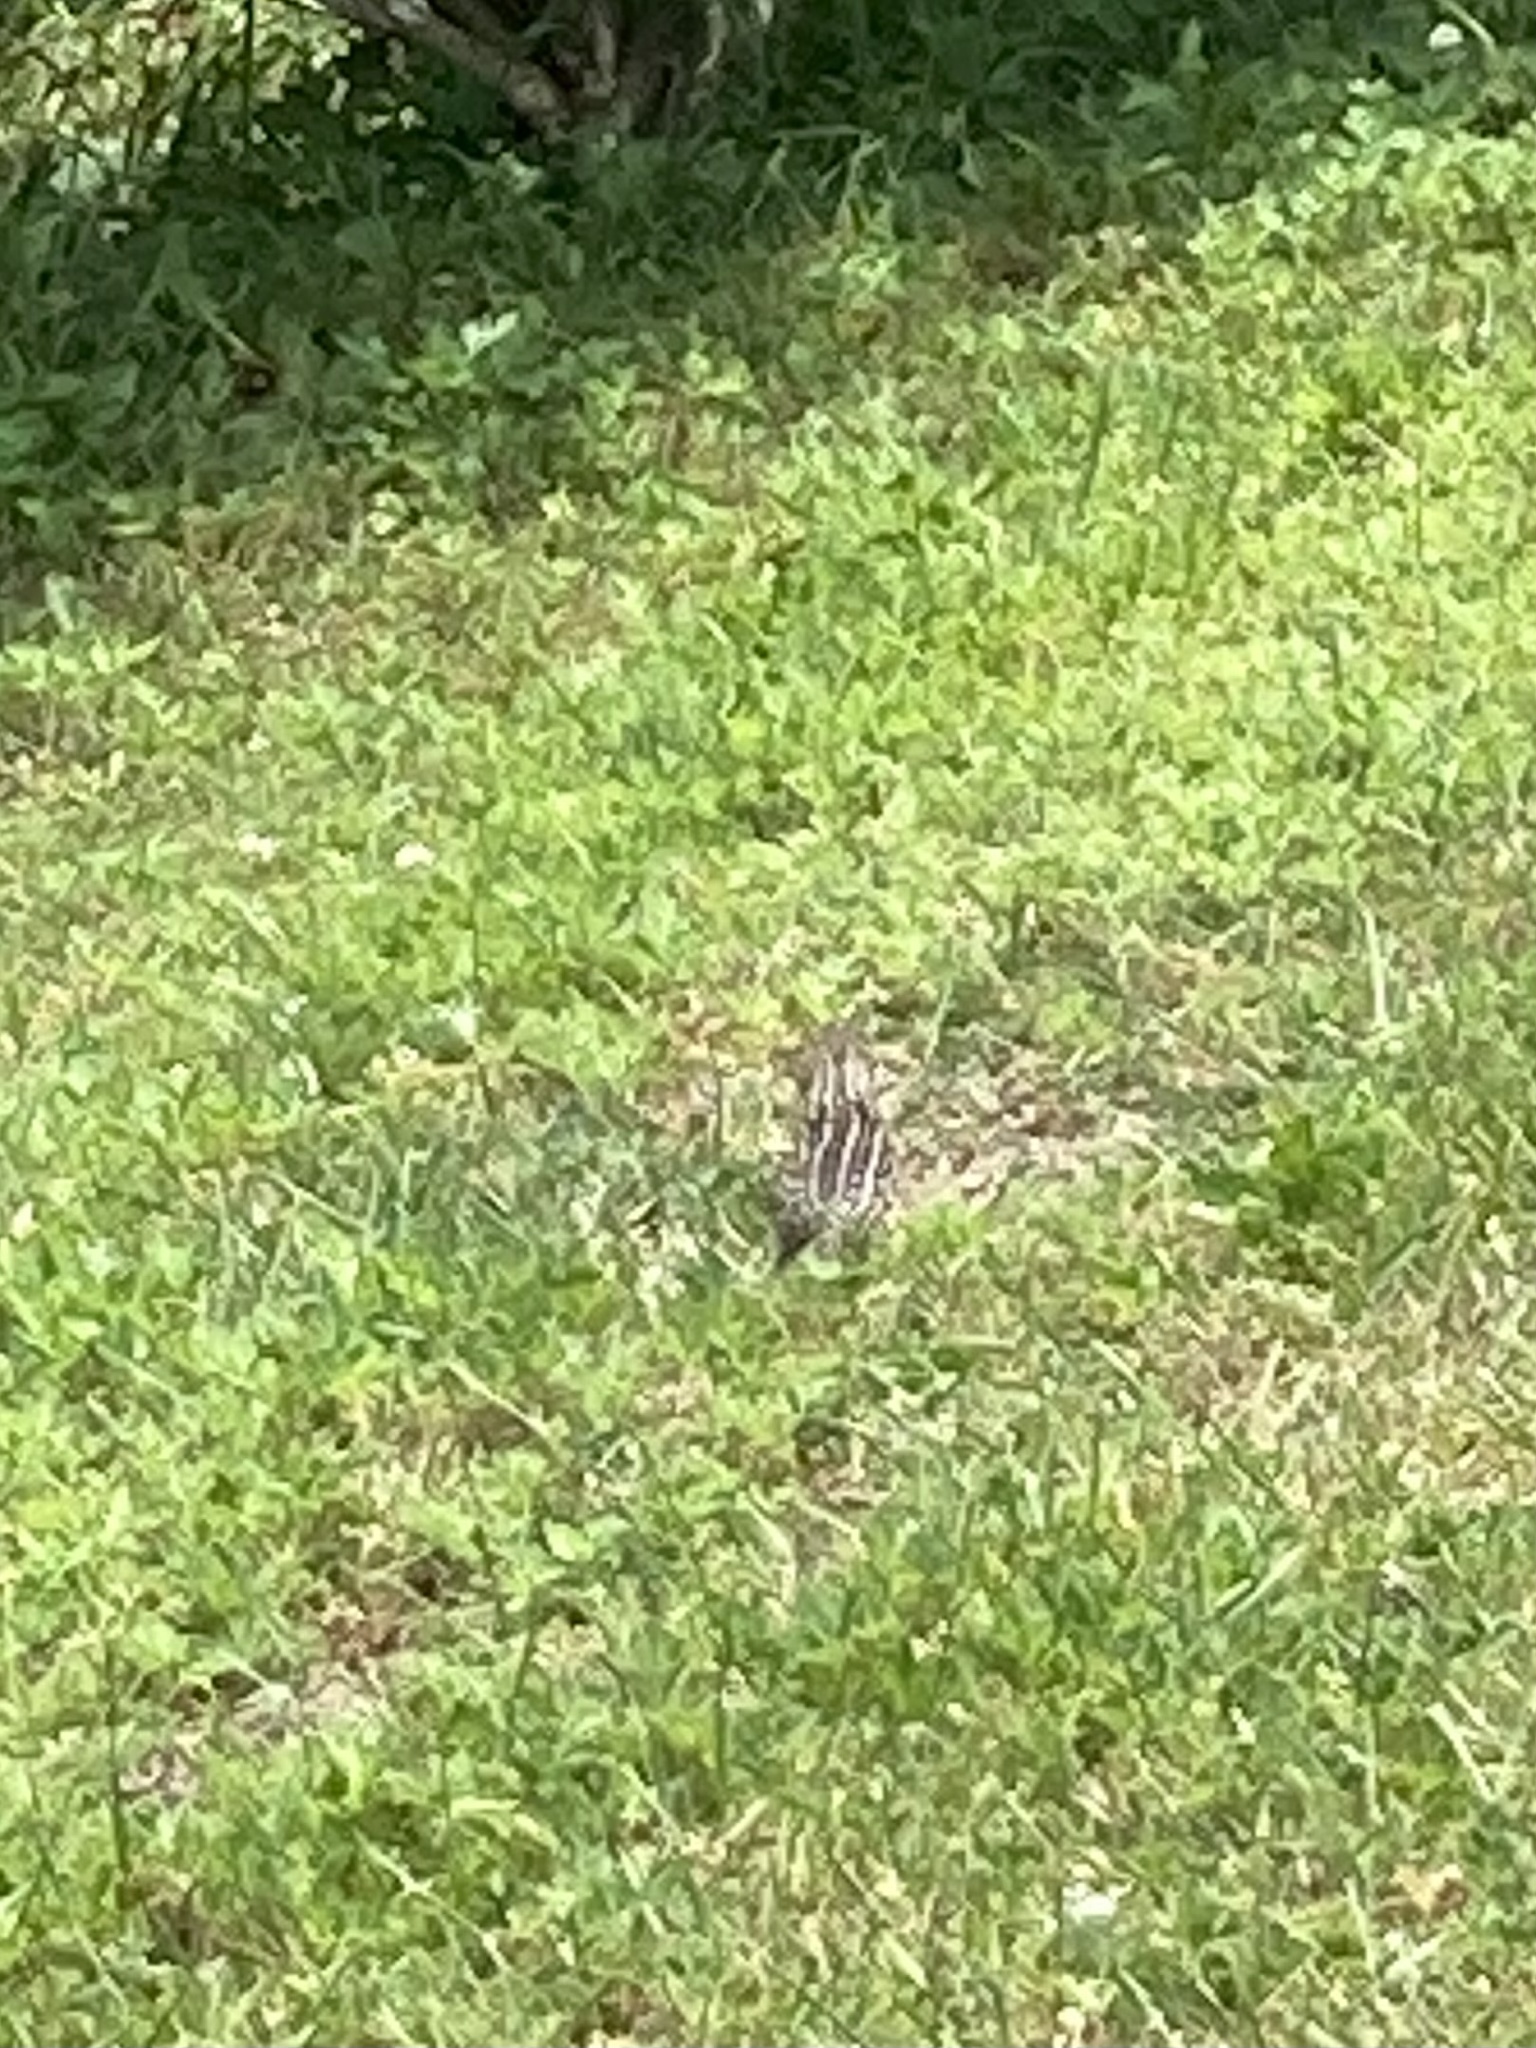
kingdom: Animalia
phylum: Chordata
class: Mammalia
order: Rodentia
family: Sciuridae
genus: Ictidomys
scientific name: Ictidomys tridecemlineatus
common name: Thirteen-lined ground squirrel
